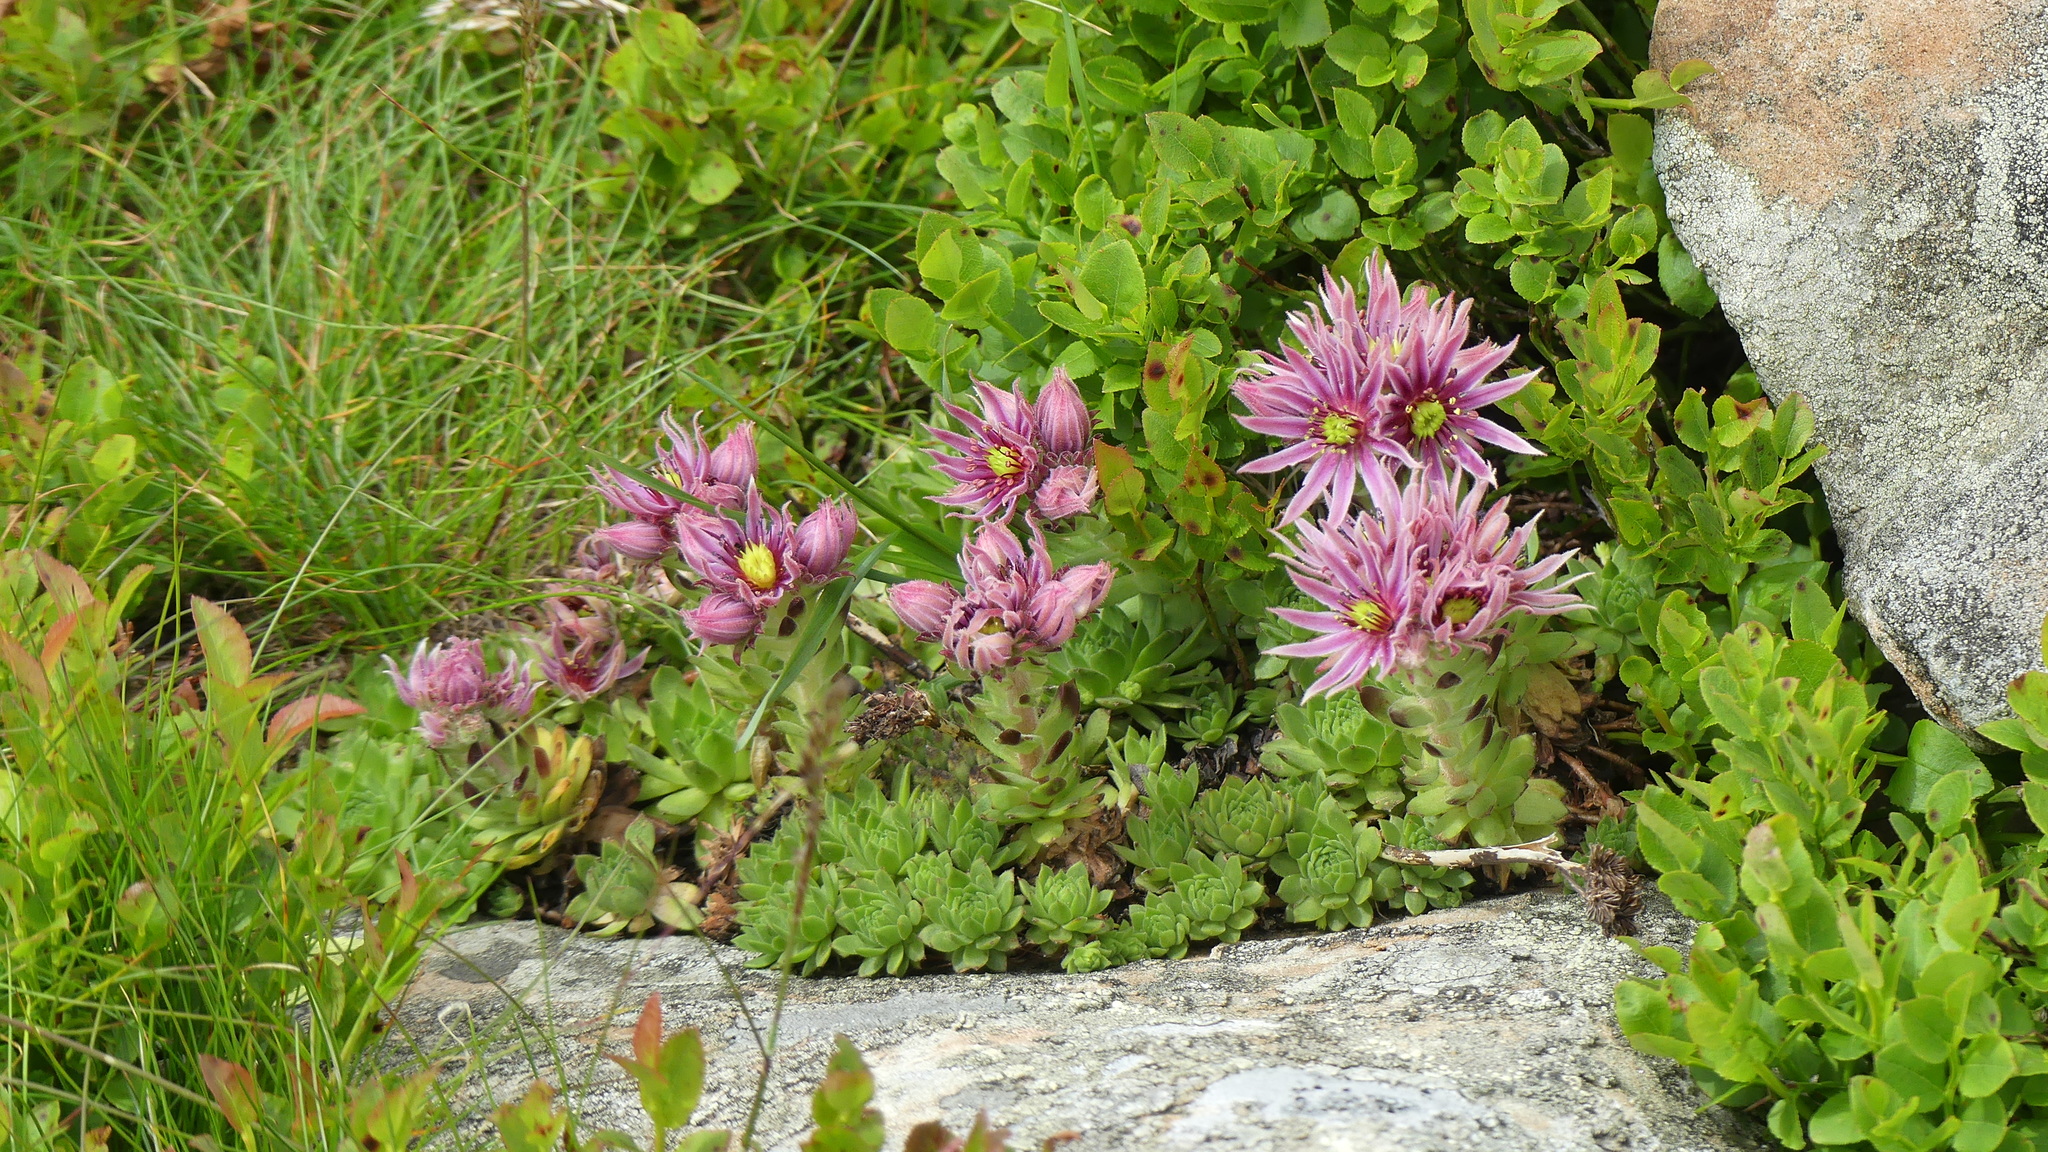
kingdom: Plantae
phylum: Tracheophyta
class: Magnoliopsida
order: Saxifragales
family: Crassulaceae
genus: Sempervivum
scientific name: Sempervivum montanum
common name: Mountain house-leek
